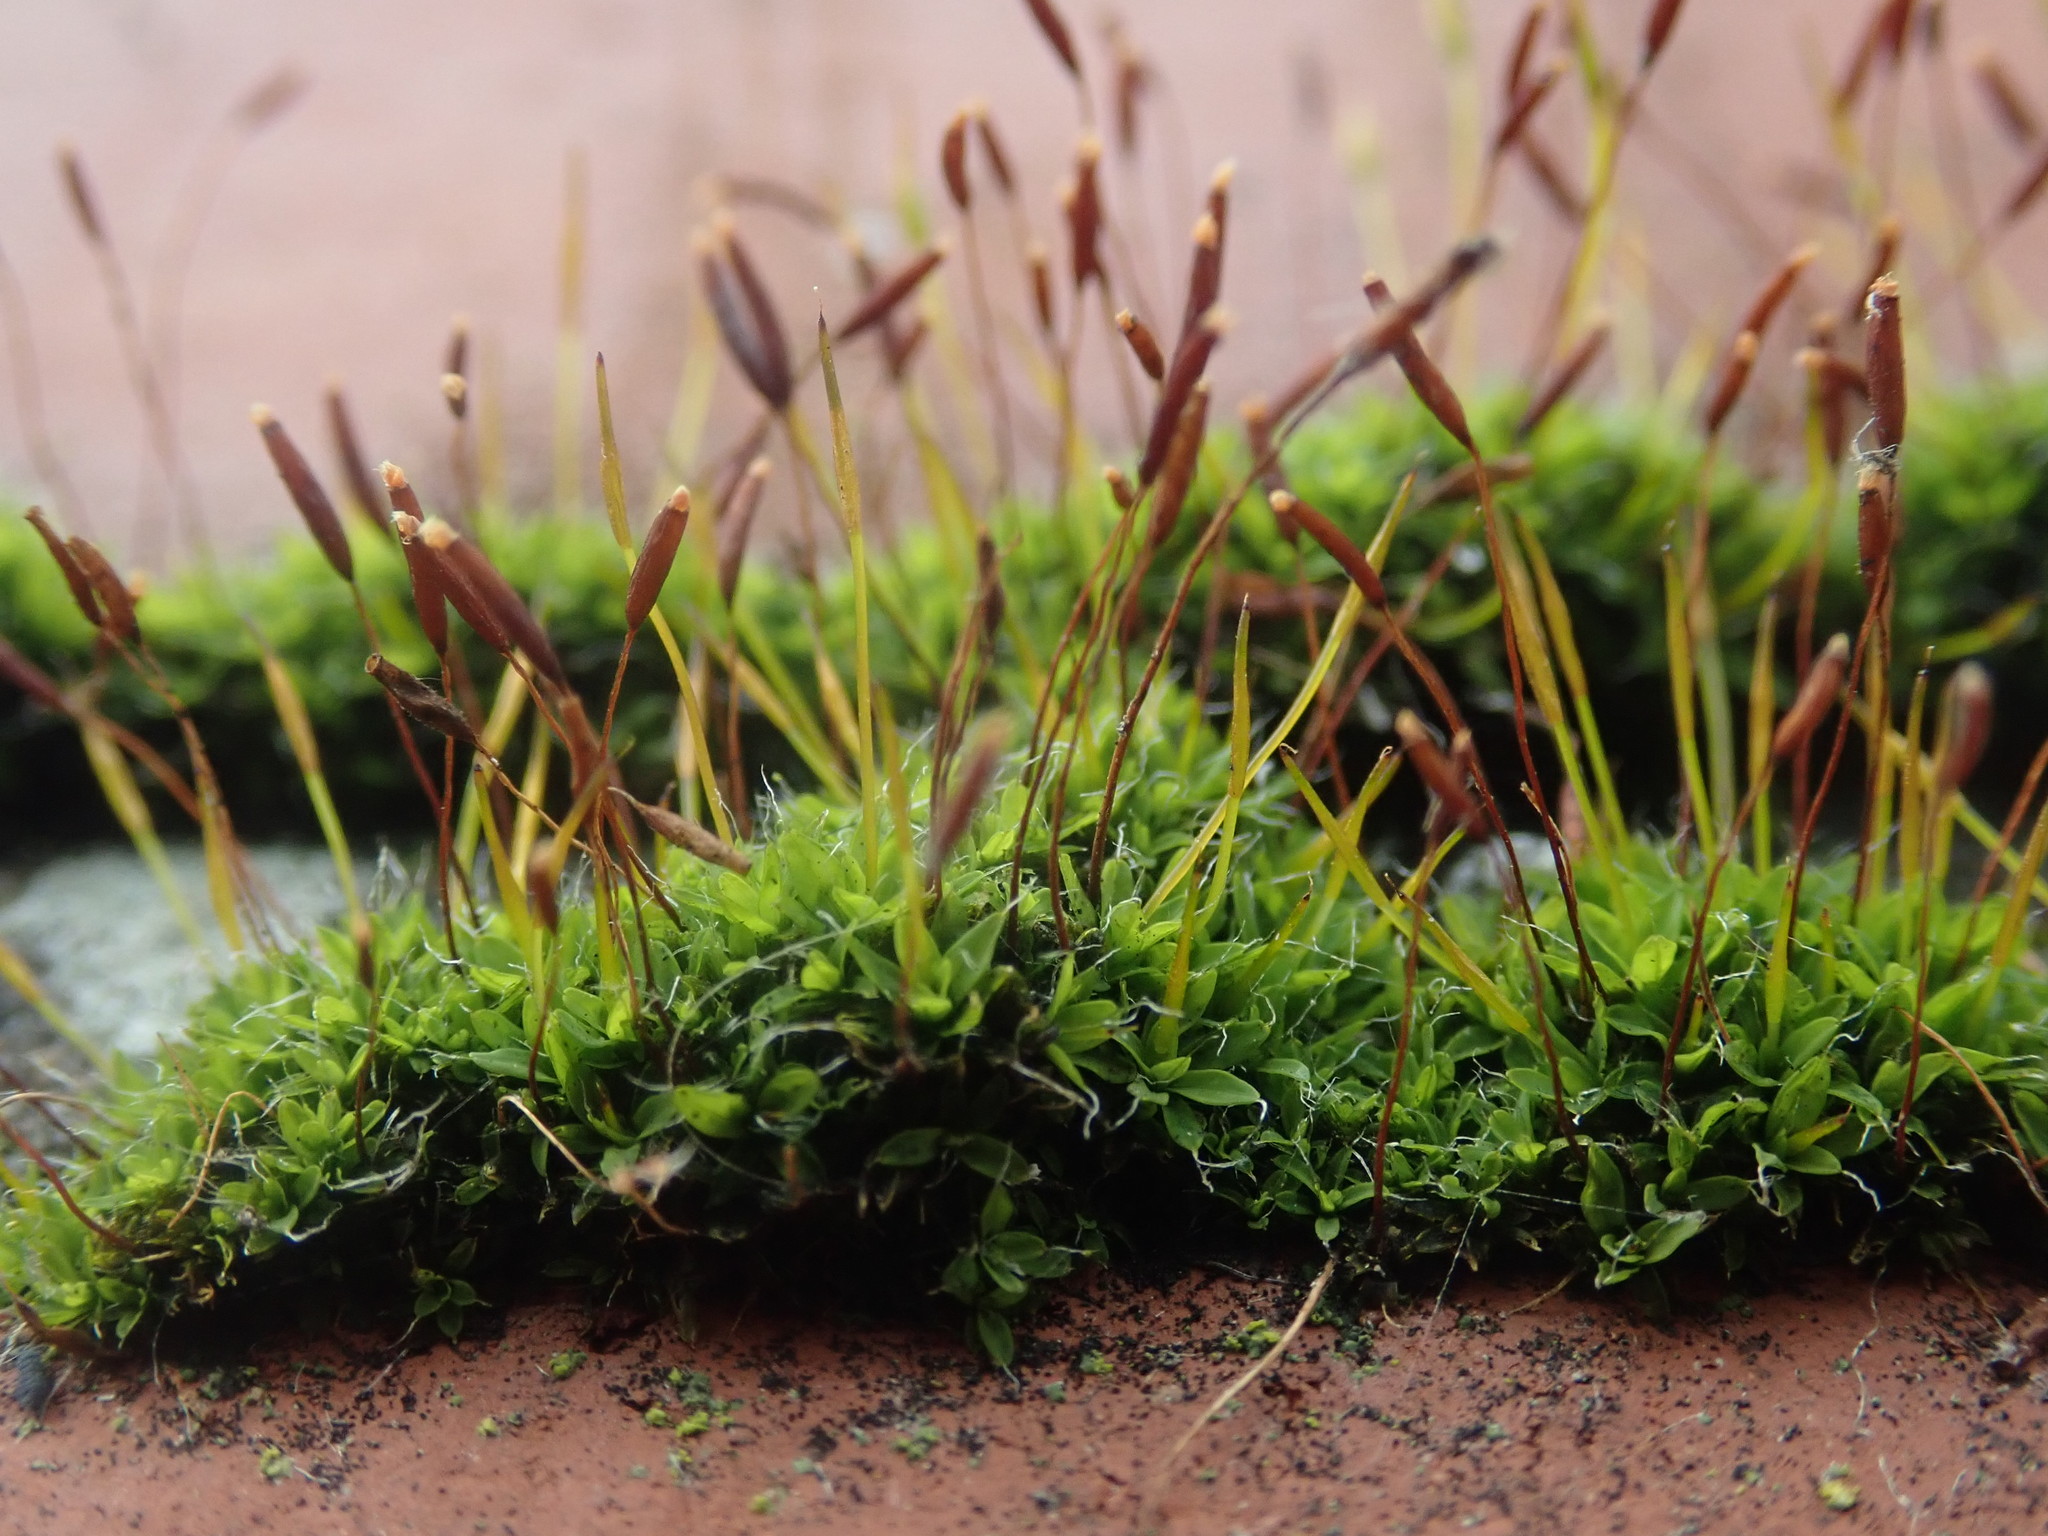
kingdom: Plantae
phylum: Bryophyta
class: Bryopsida
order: Pottiales
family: Pottiaceae
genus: Tortula
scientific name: Tortula muralis
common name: Wall screw-moss
